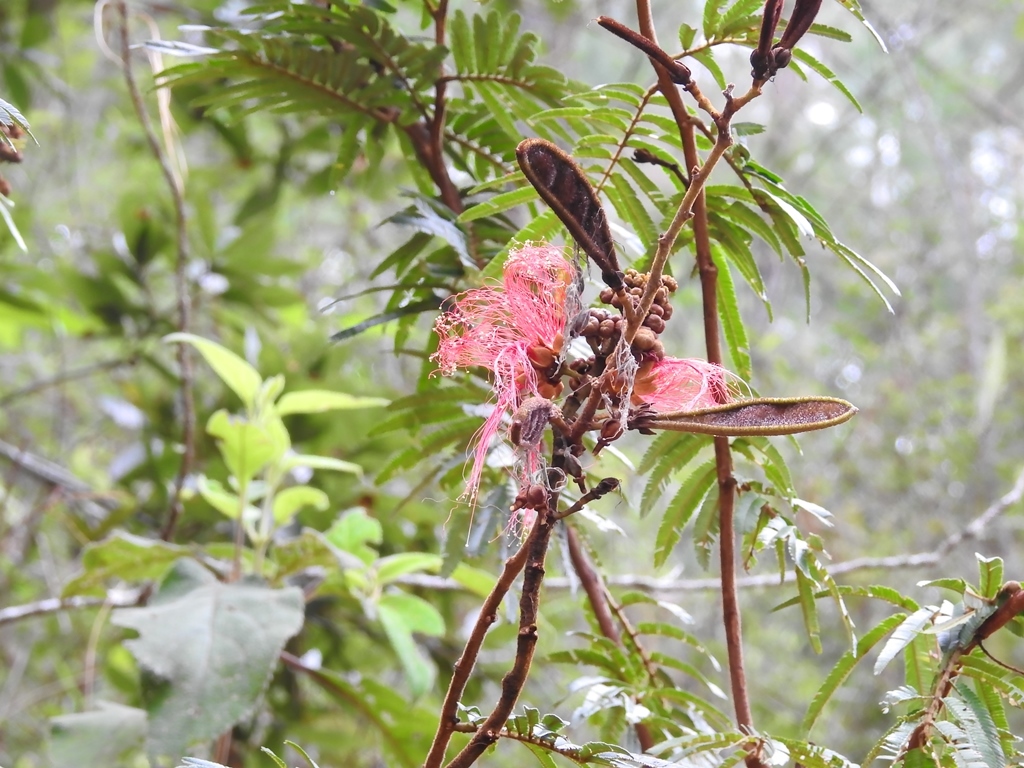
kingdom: Plantae
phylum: Tracheophyta
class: Magnoliopsida
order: Fabales
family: Fabaceae
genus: Calliandra
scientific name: Calliandra houstoniana
